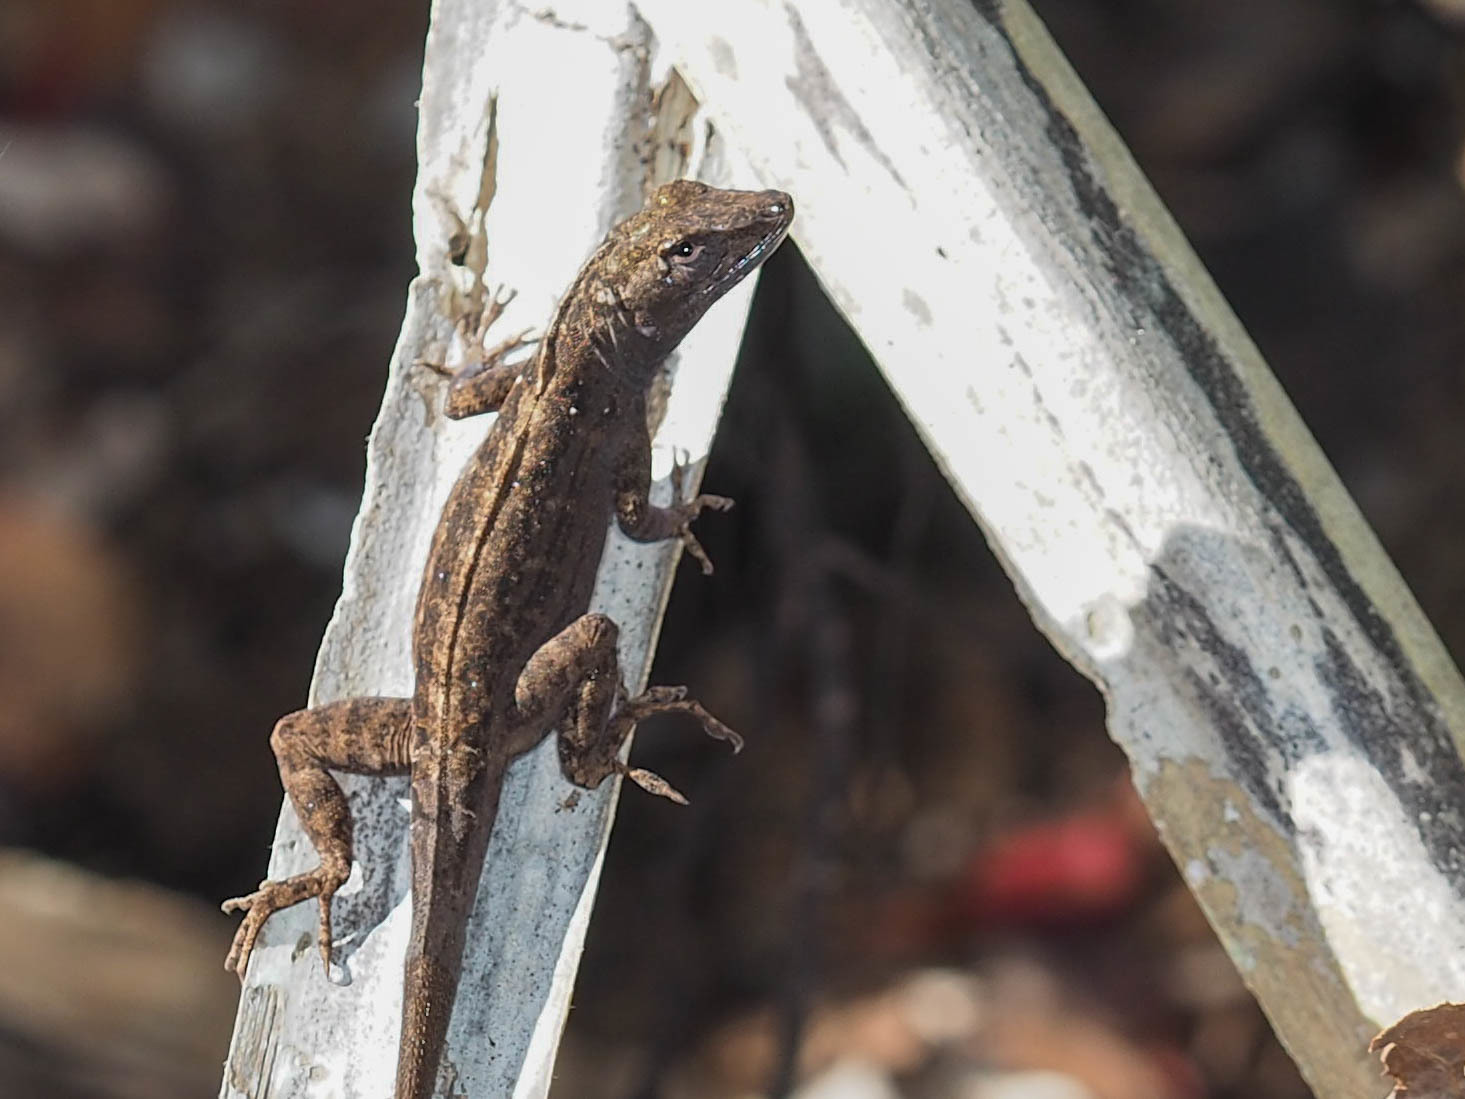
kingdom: Animalia
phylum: Chordata
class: Squamata
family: Dactyloidae
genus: Anolis
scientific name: Anolis sagrei
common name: Brown anole
